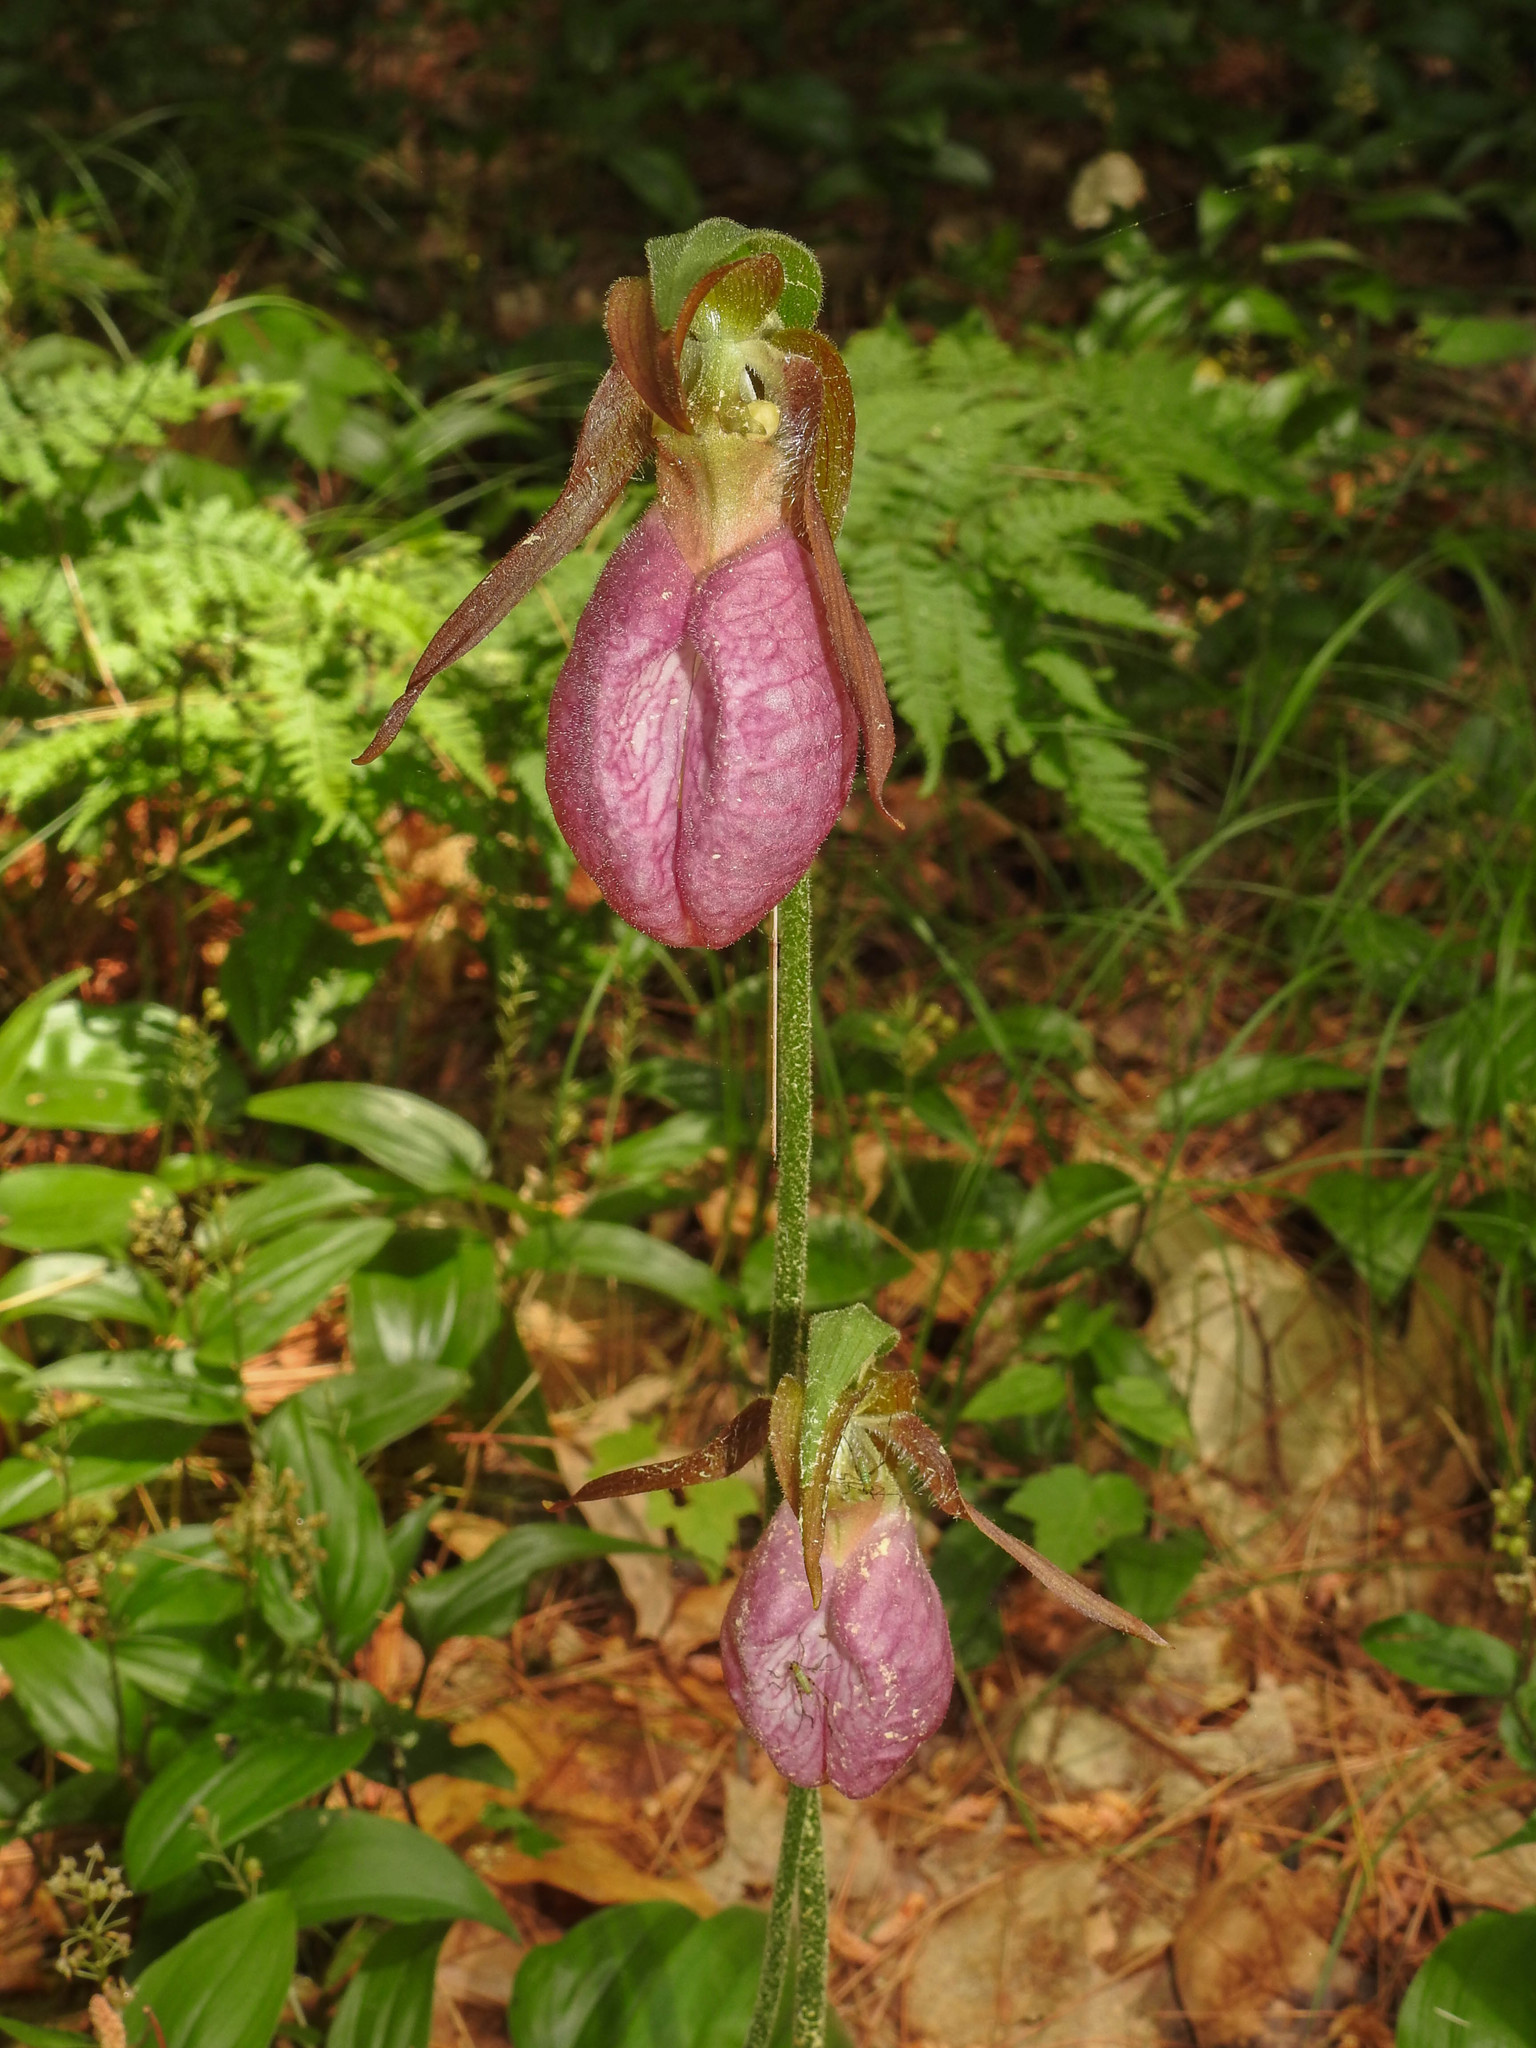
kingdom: Plantae
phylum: Tracheophyta
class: Liliopsida
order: Asparagales
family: Orchidaceae
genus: Cypripedium
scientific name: Cypripedium acaule
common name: Pink lady's-slipper
